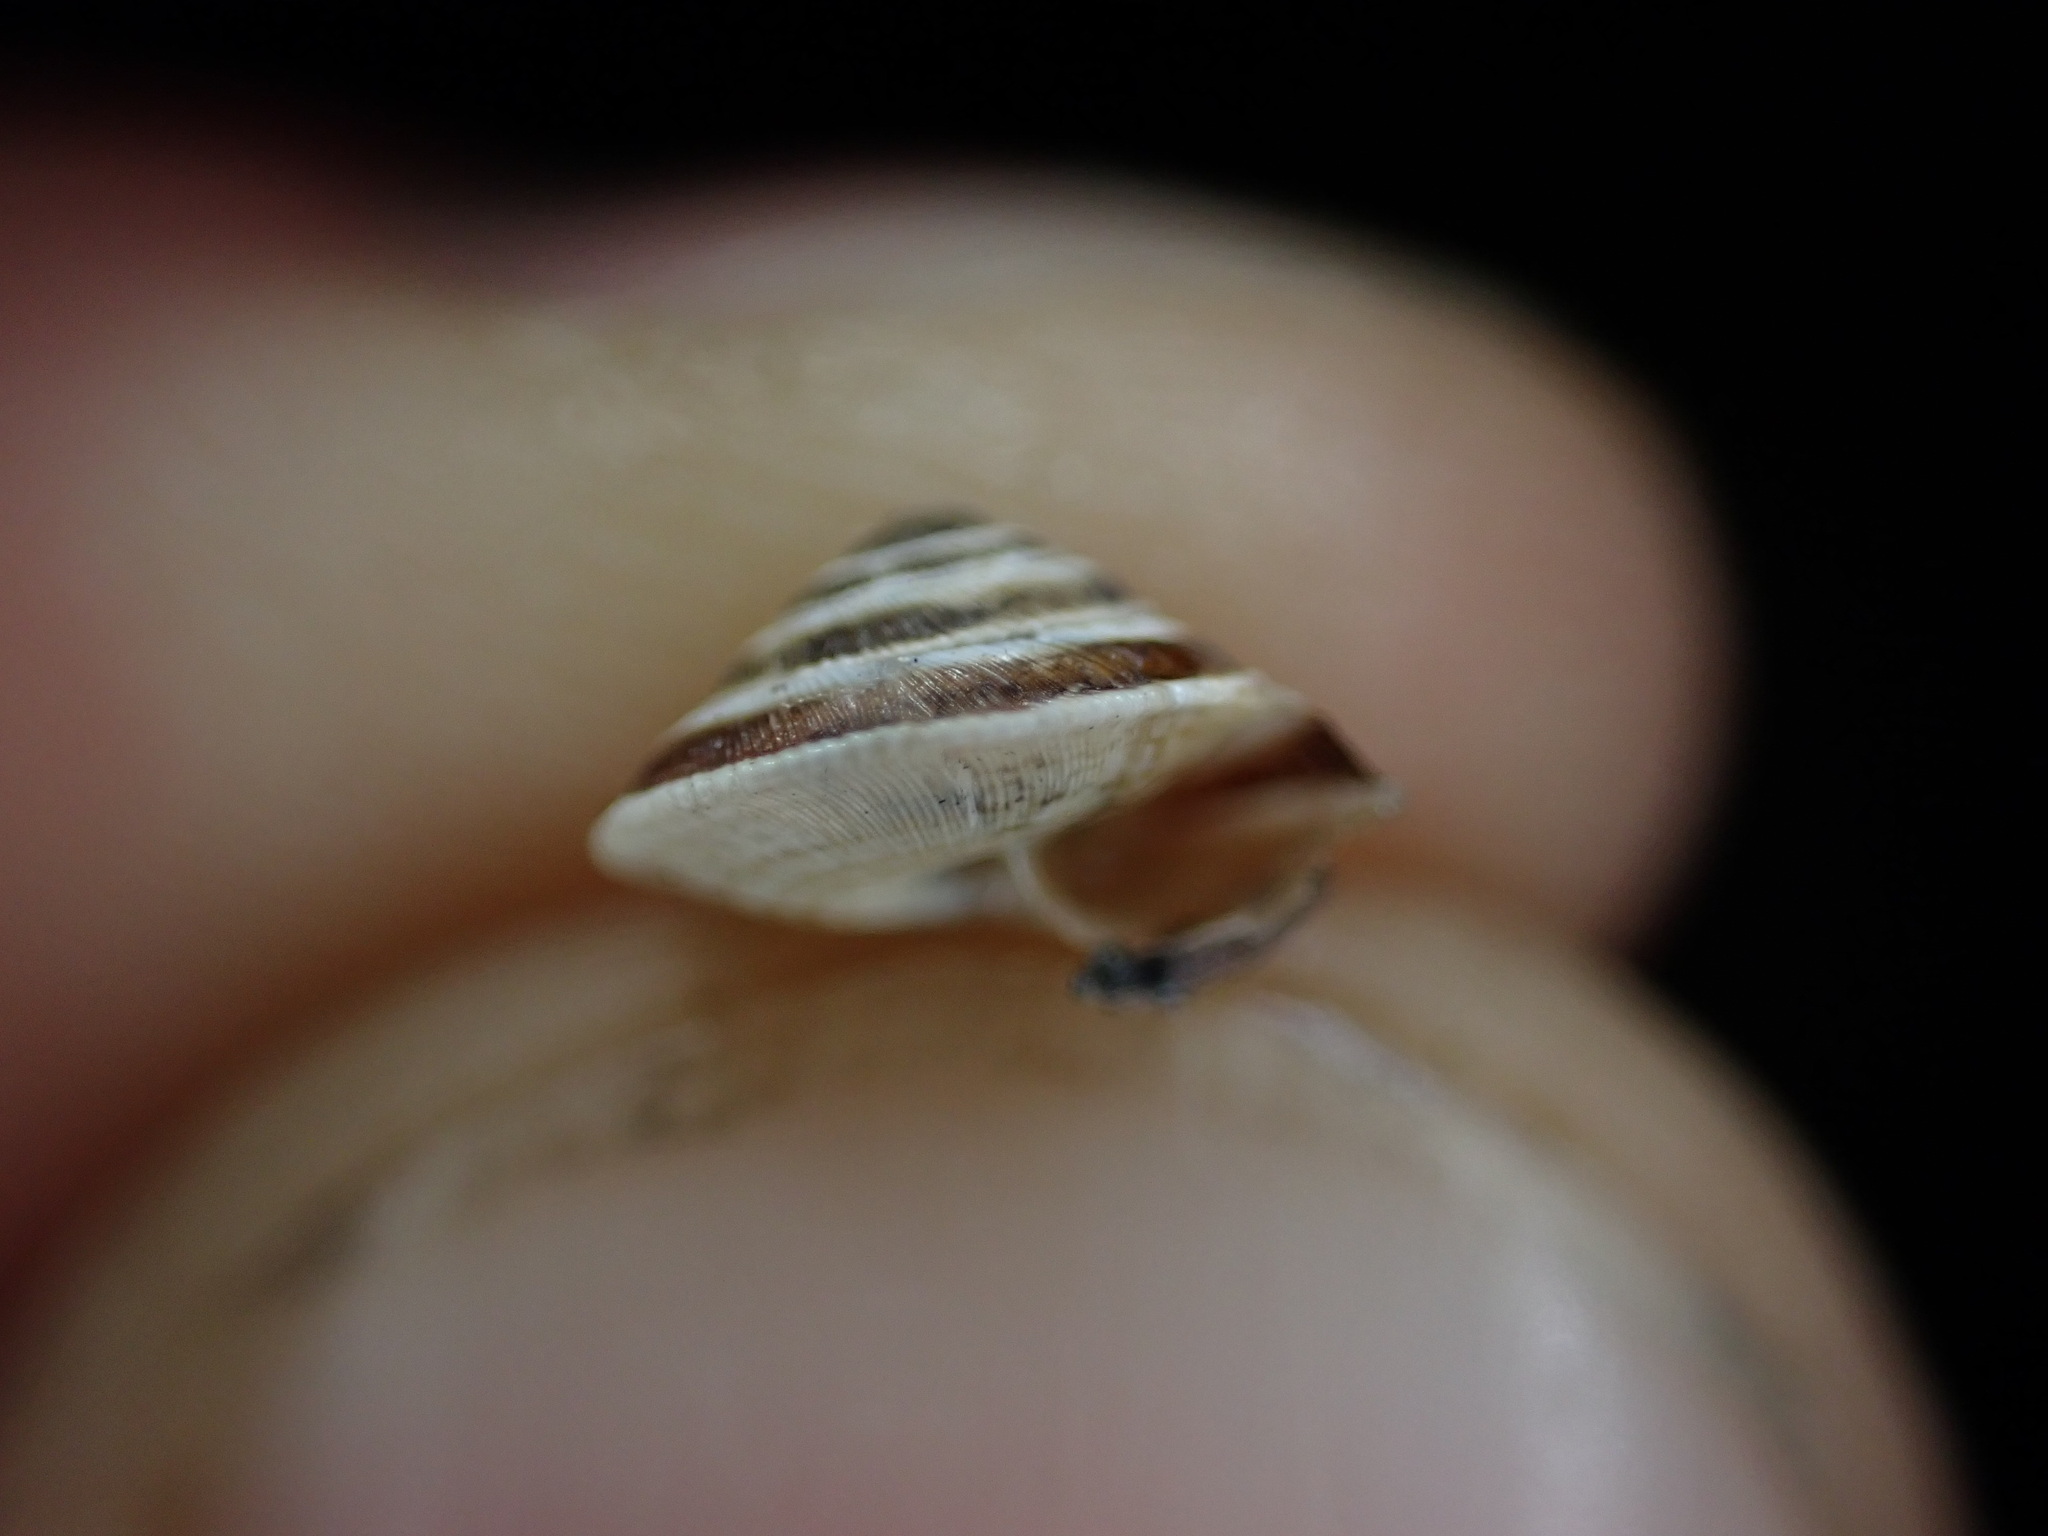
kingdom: Animalia
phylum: Mollusca
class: Gastropoda
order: Stylommatophora
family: Geomitridae
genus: Trochoidea
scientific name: Trochoidea elegans
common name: Elegant helicellid
